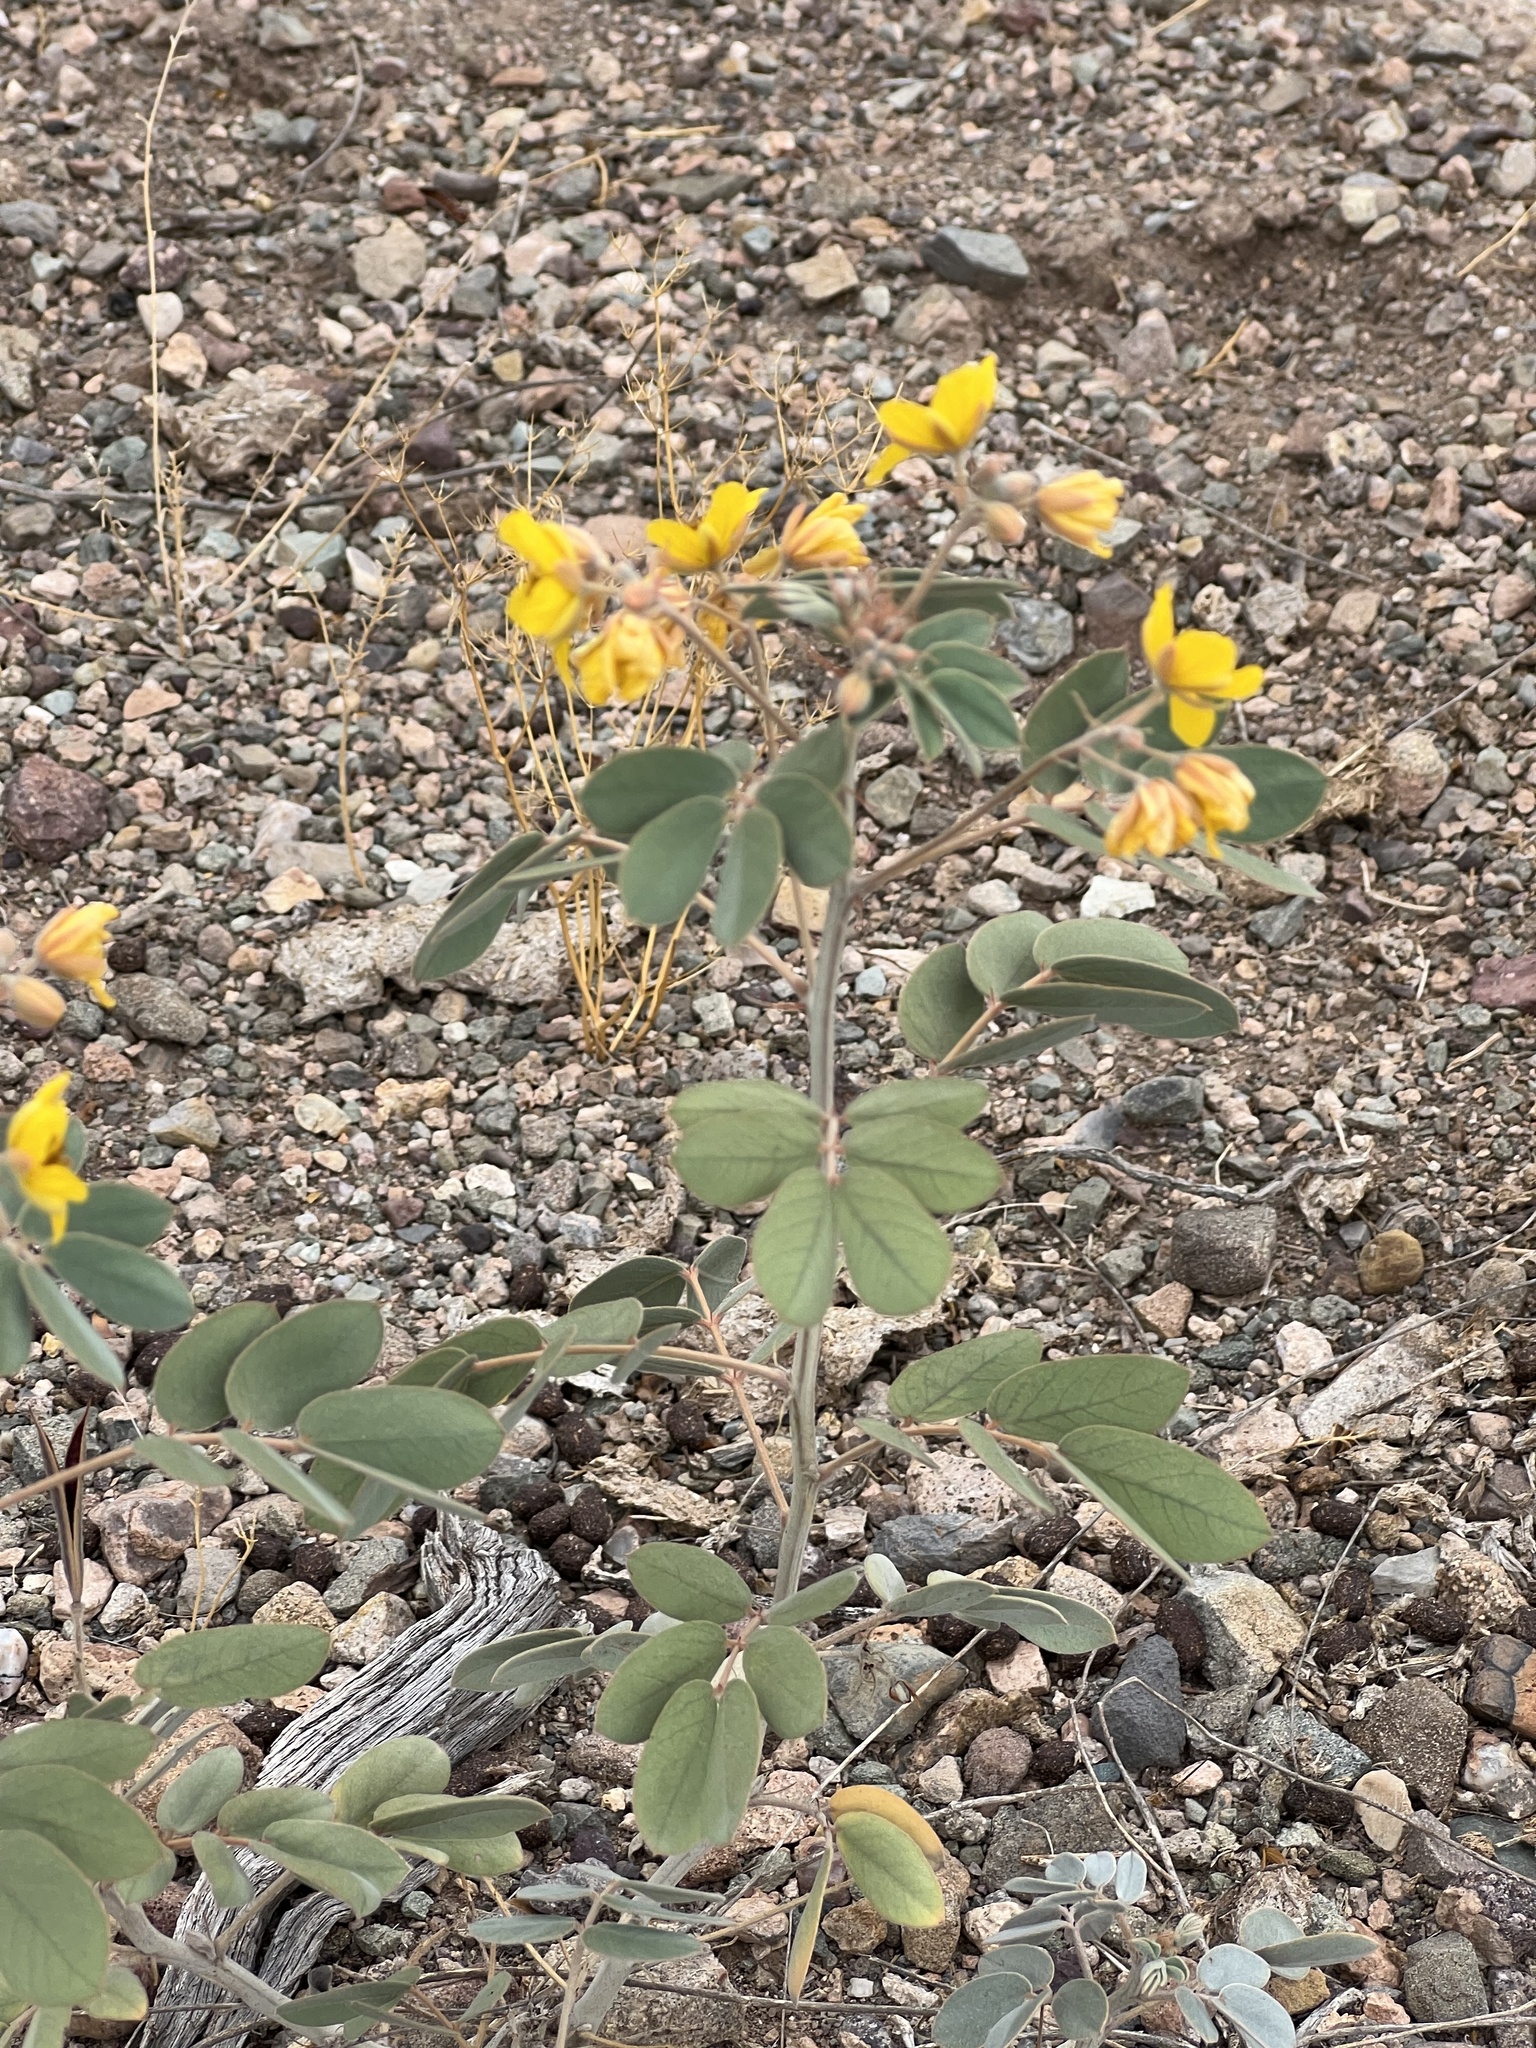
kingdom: Plantae
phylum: Tracheophyta
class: Magnoliopsida
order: Fabales
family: Fabaceae
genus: Senna
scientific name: Senna covesii
